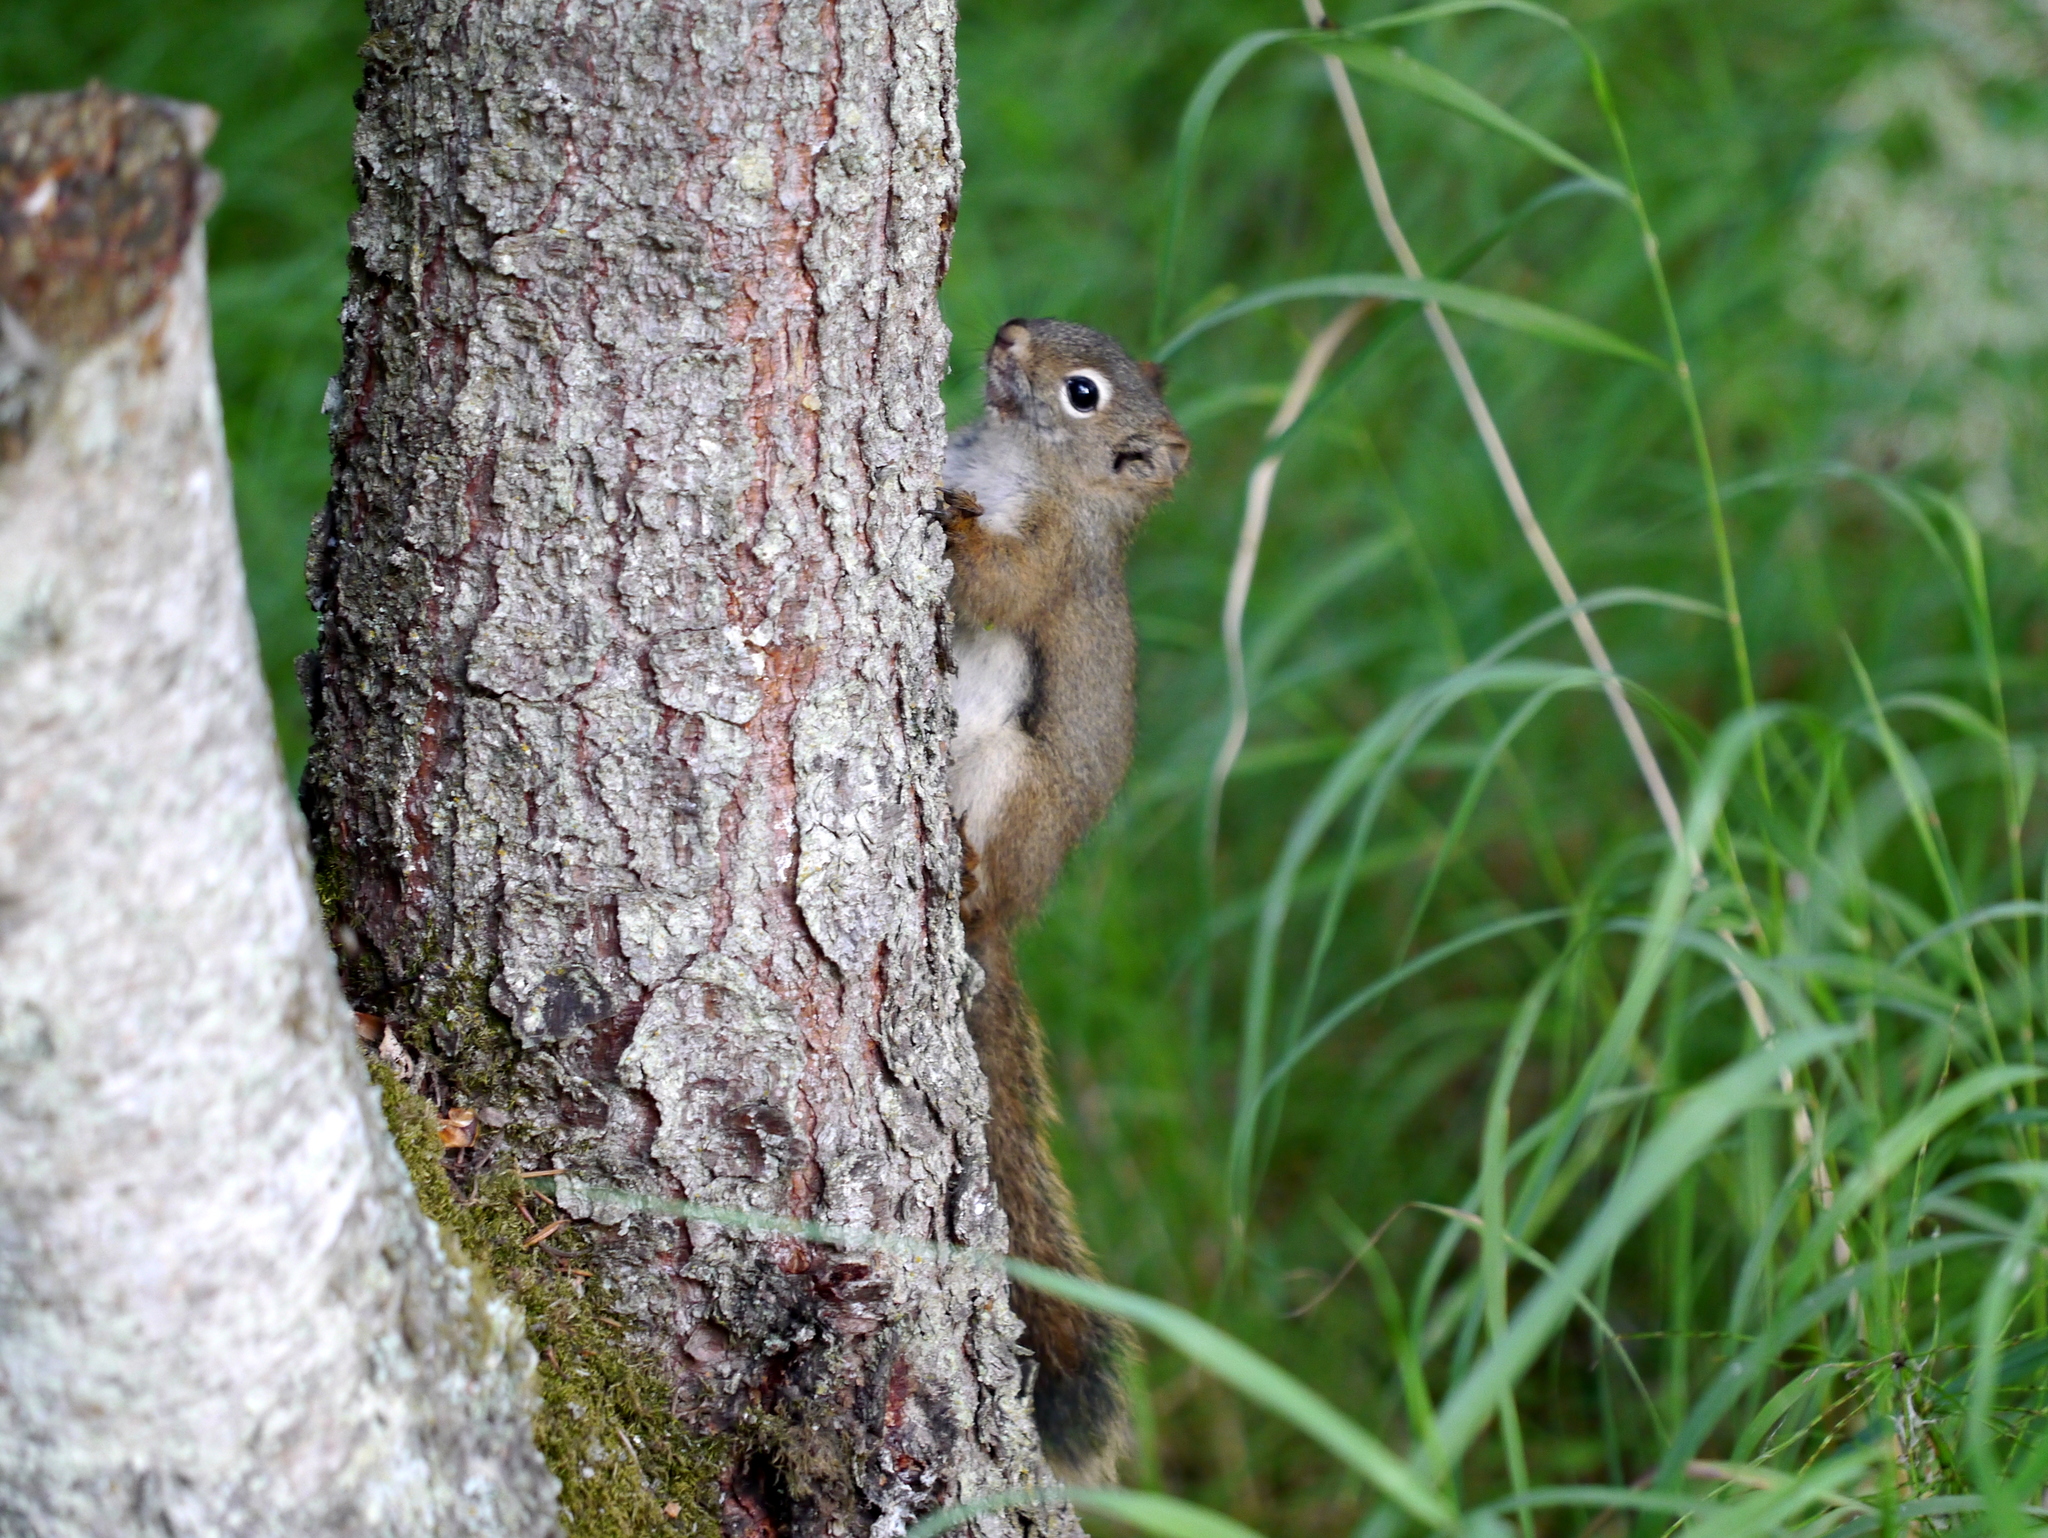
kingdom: Animalia
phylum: Chordata
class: Mammalia
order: Rodentia
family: Sciuridae
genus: Tamiasciurus
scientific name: Tamiasciurus hudsonicus
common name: Red squirrel
